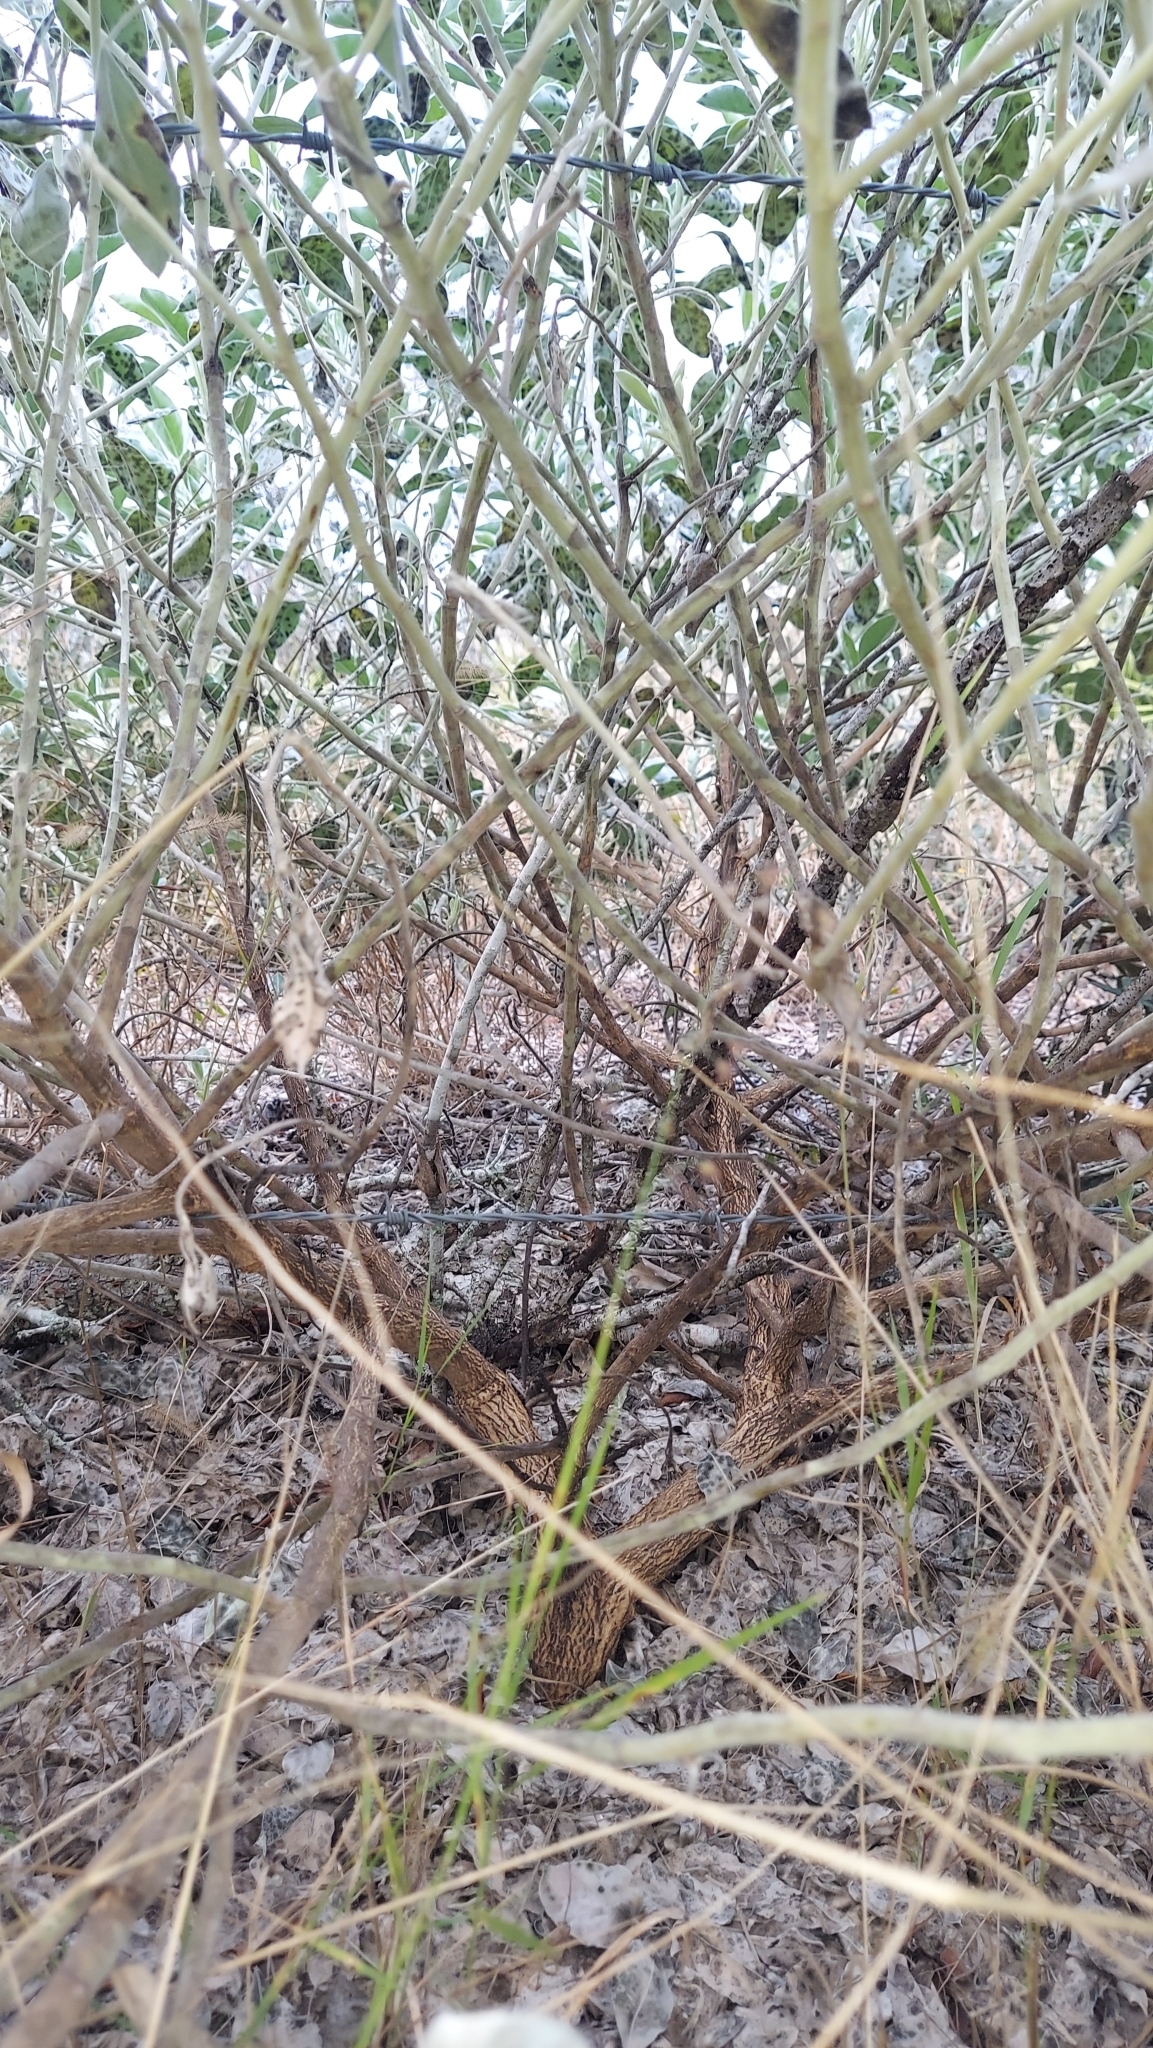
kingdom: Plantae
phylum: Tracheophyta
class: Magnoliopsida
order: Fabales
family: Fabaceae
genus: Lupinus
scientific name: Lupinus cumulicola
